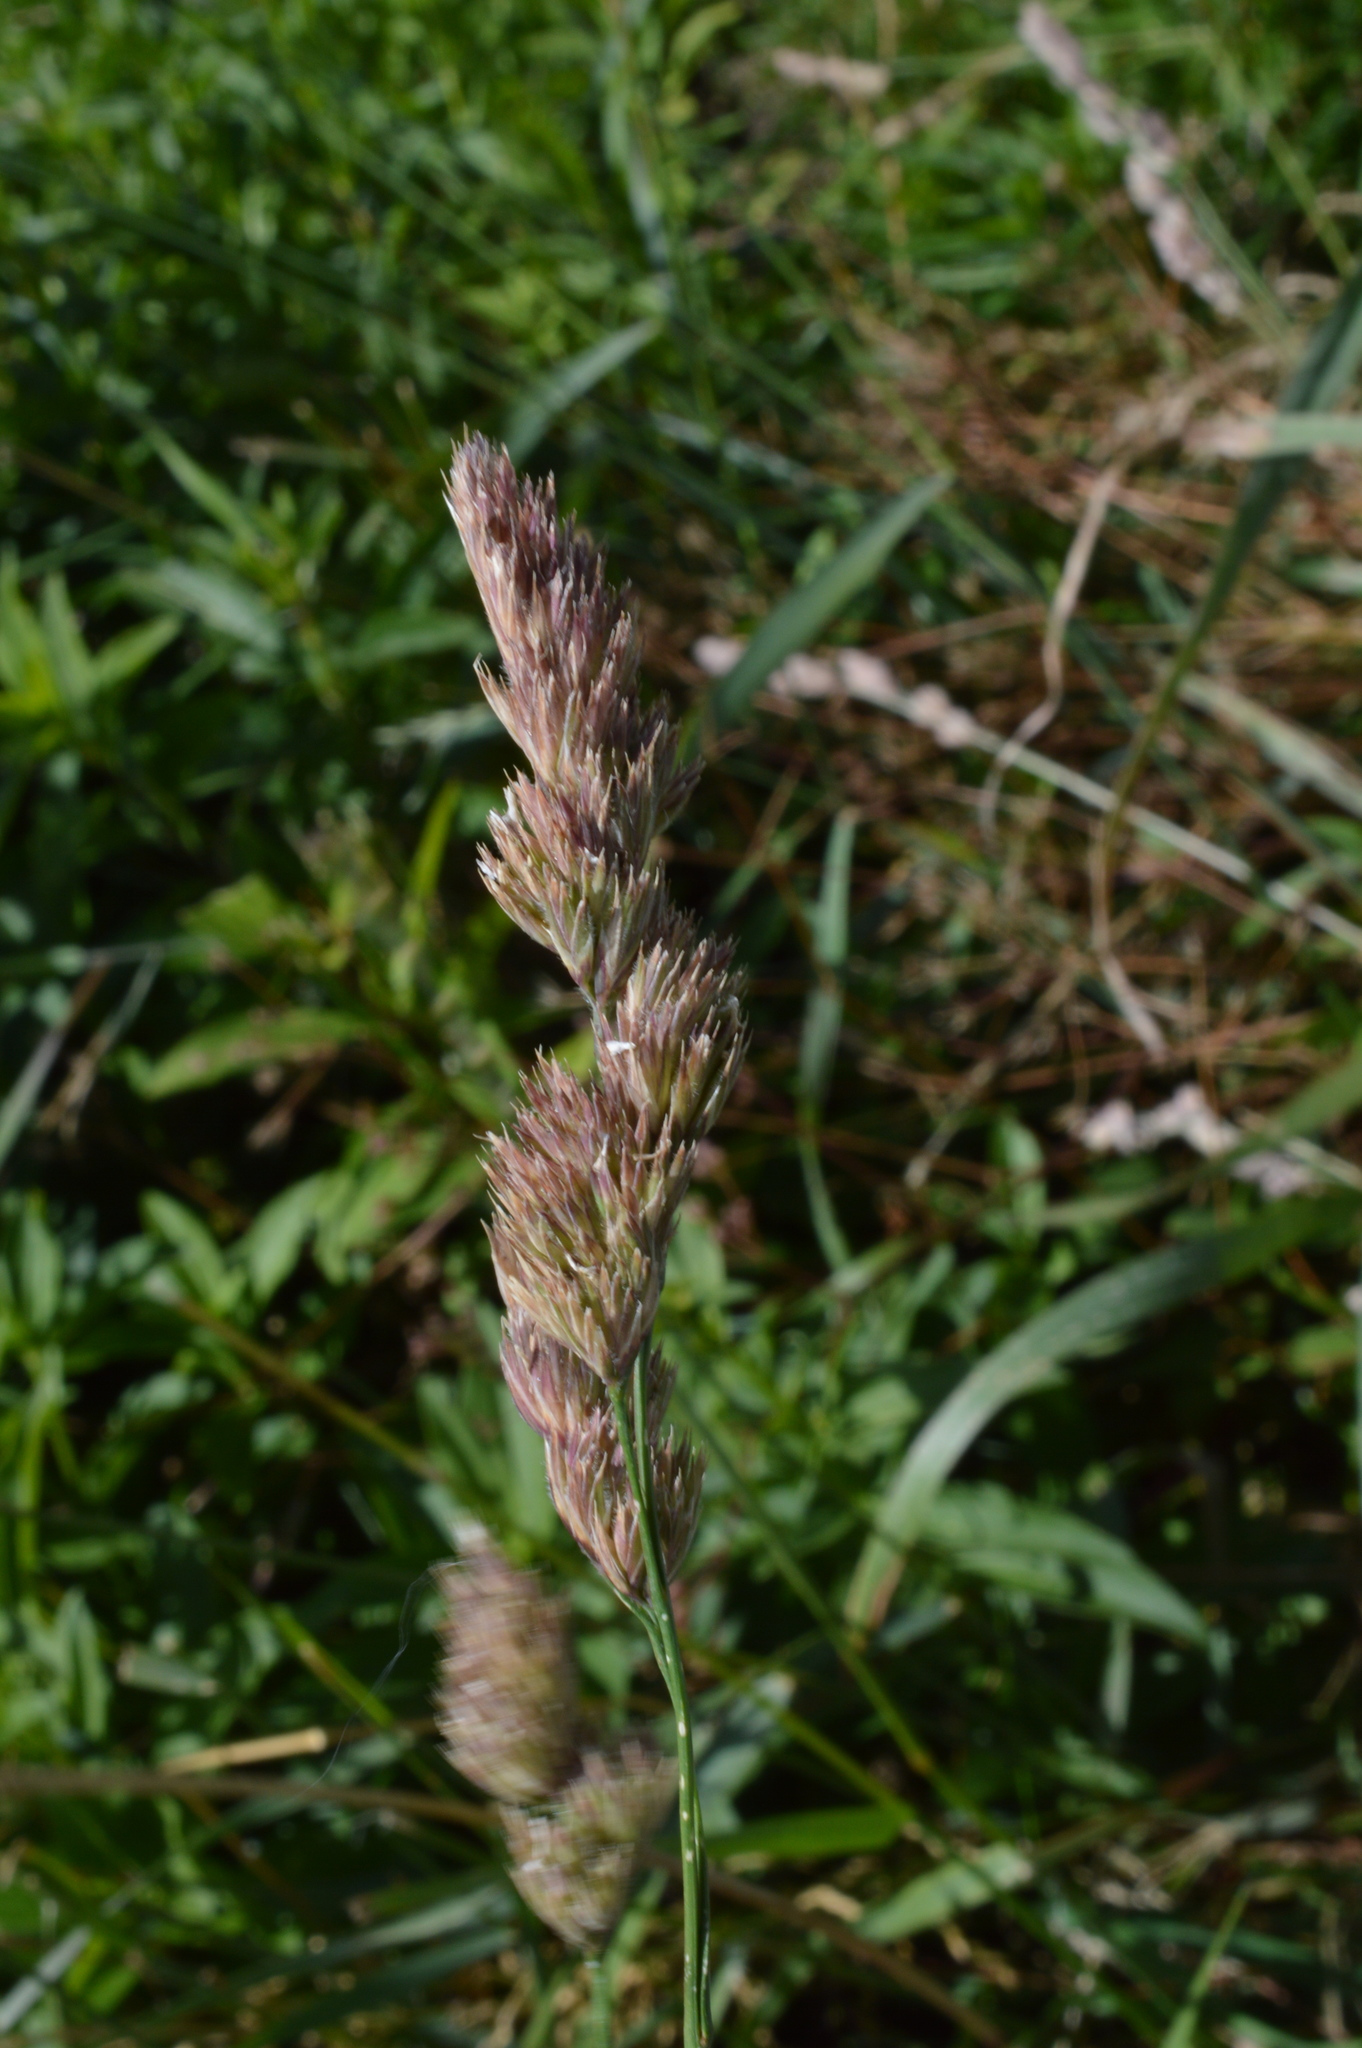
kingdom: Plantae
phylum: Tracheophyta
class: Liliopsida
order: Poales
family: Poaceae
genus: Dactylis
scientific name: Dactylis glomerata
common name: Orchardgrass
